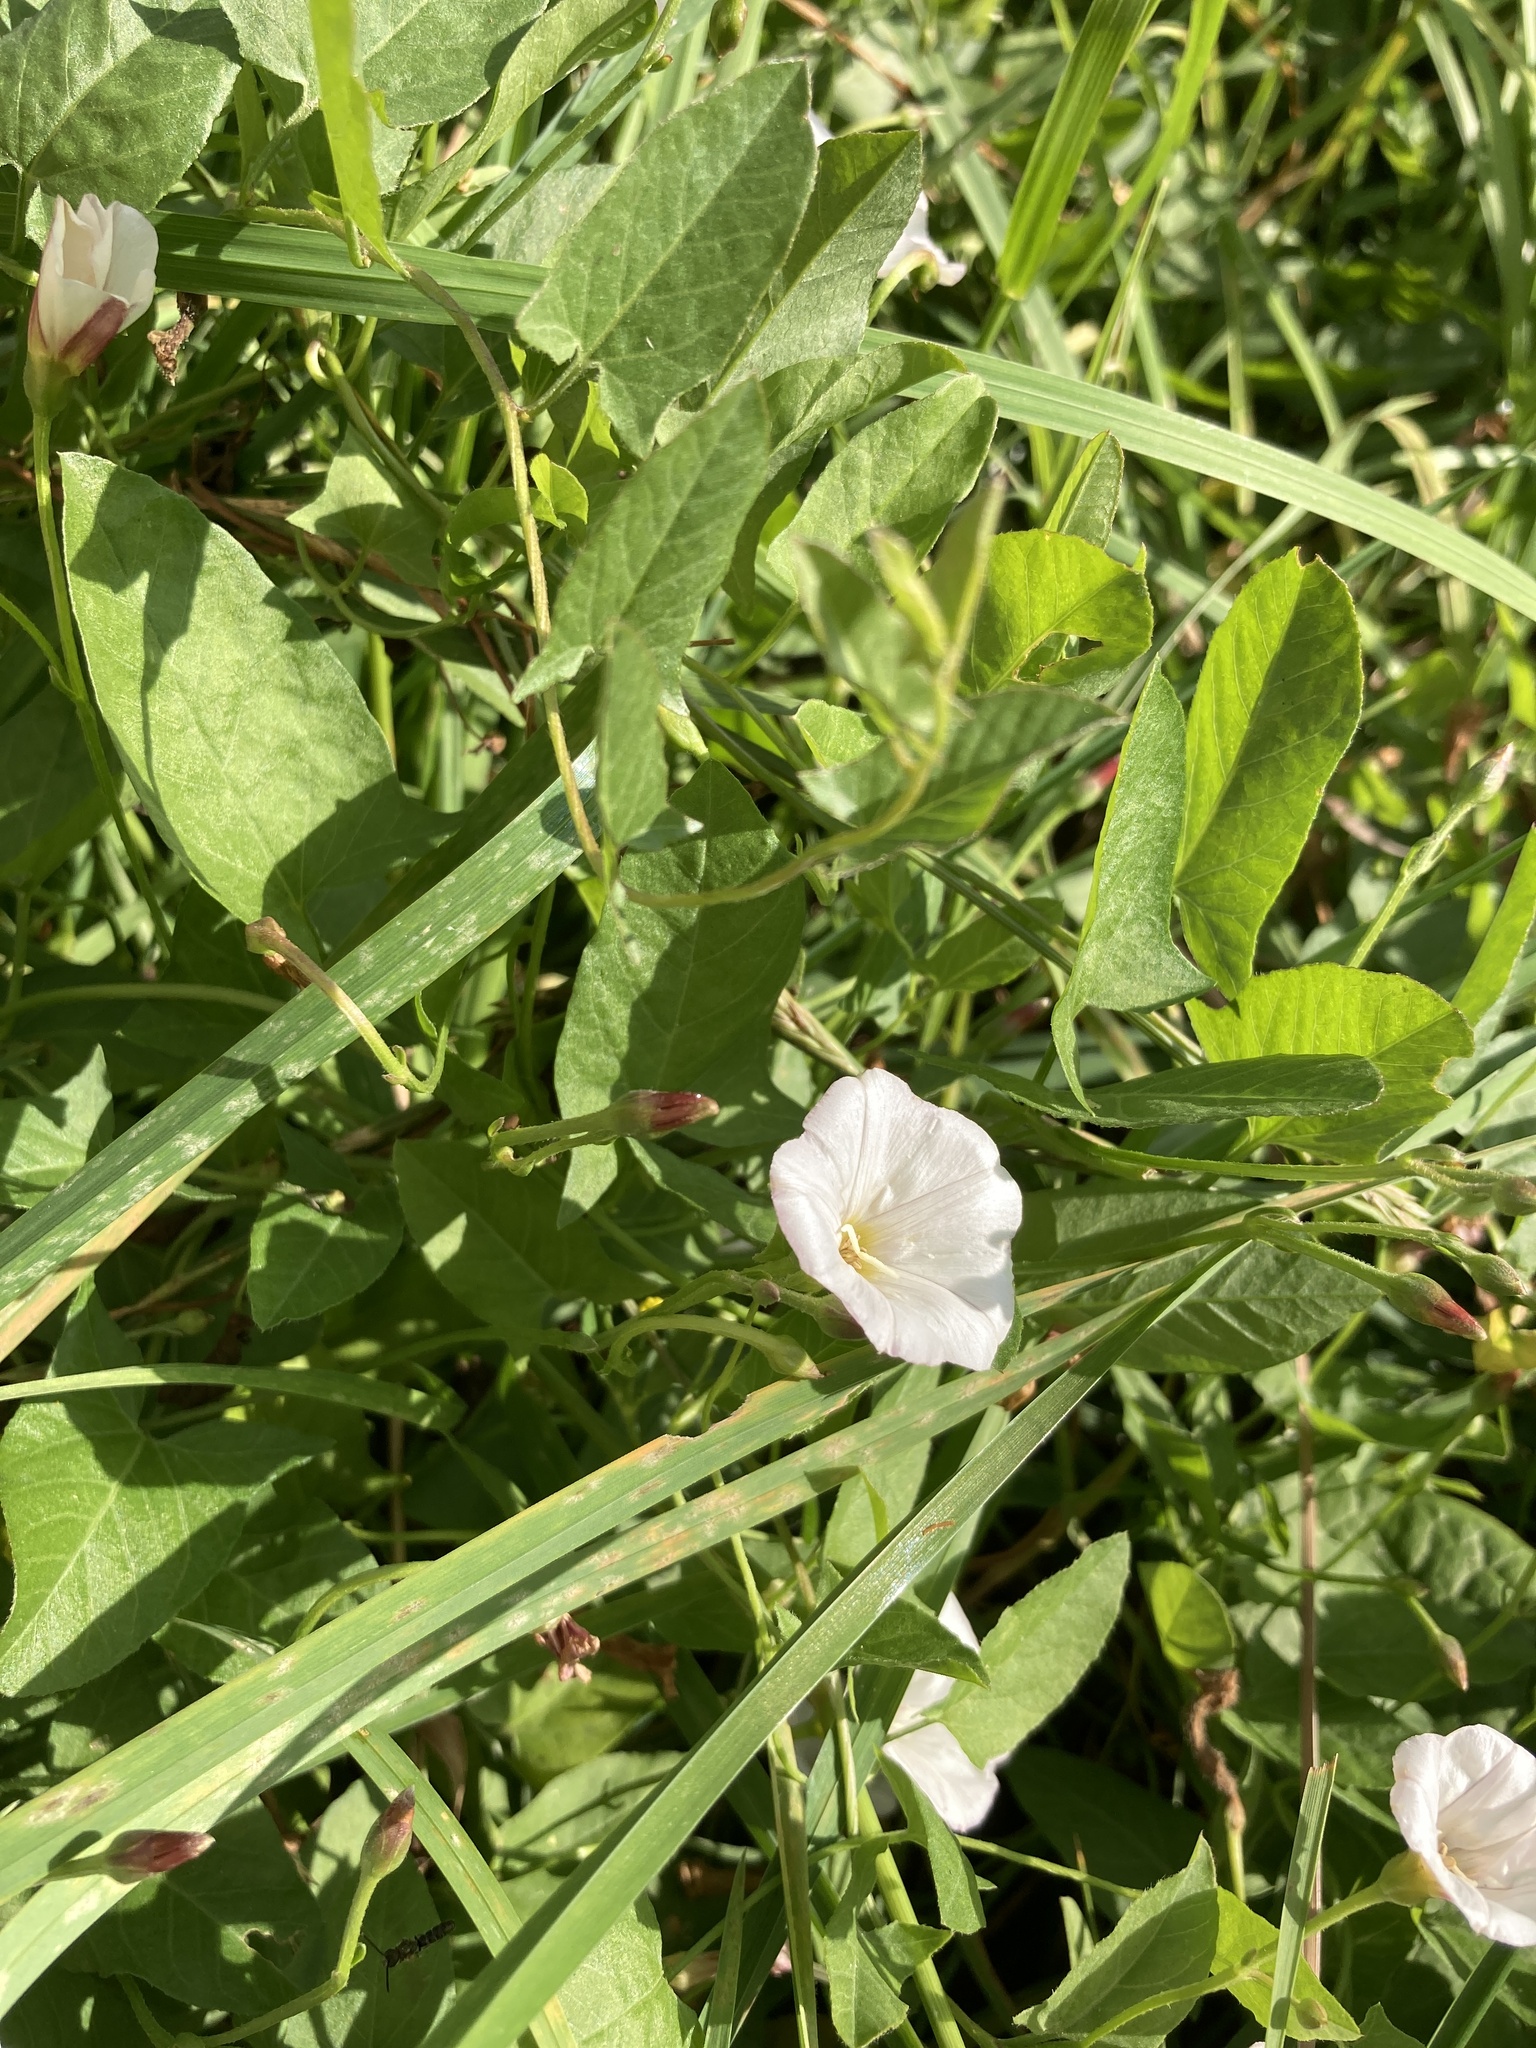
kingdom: Plantae
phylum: Tracheophyta
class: Magnoliopsida
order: Solanales
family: Convolvulaceae
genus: Convolvulus
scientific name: Convolvulus arvensis
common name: Field bindweed
